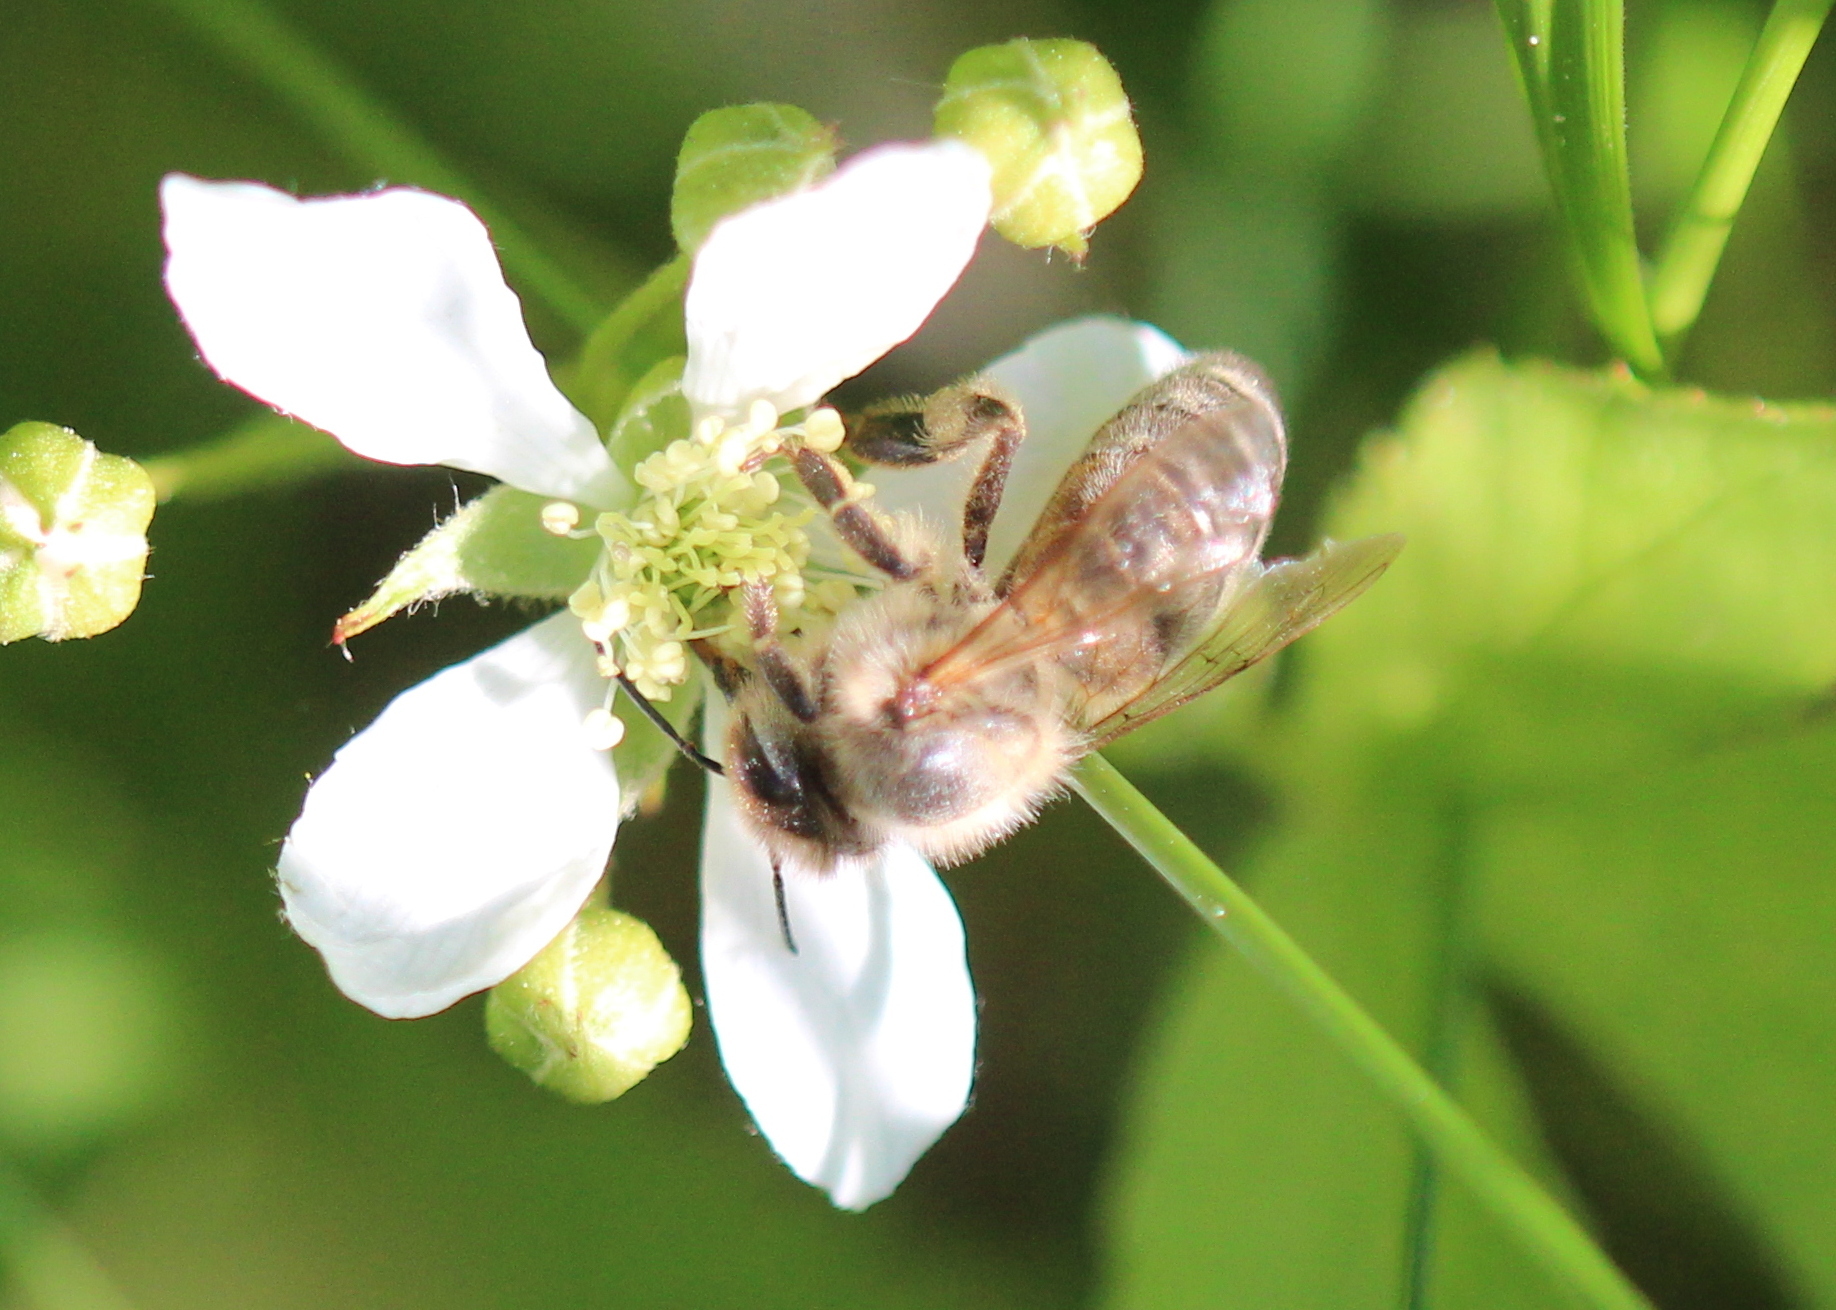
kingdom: Animalia
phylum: Arthropoda
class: Insecta
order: Hymenoptera
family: Apidae
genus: Apis
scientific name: Apis mellifera
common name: Honey bee
